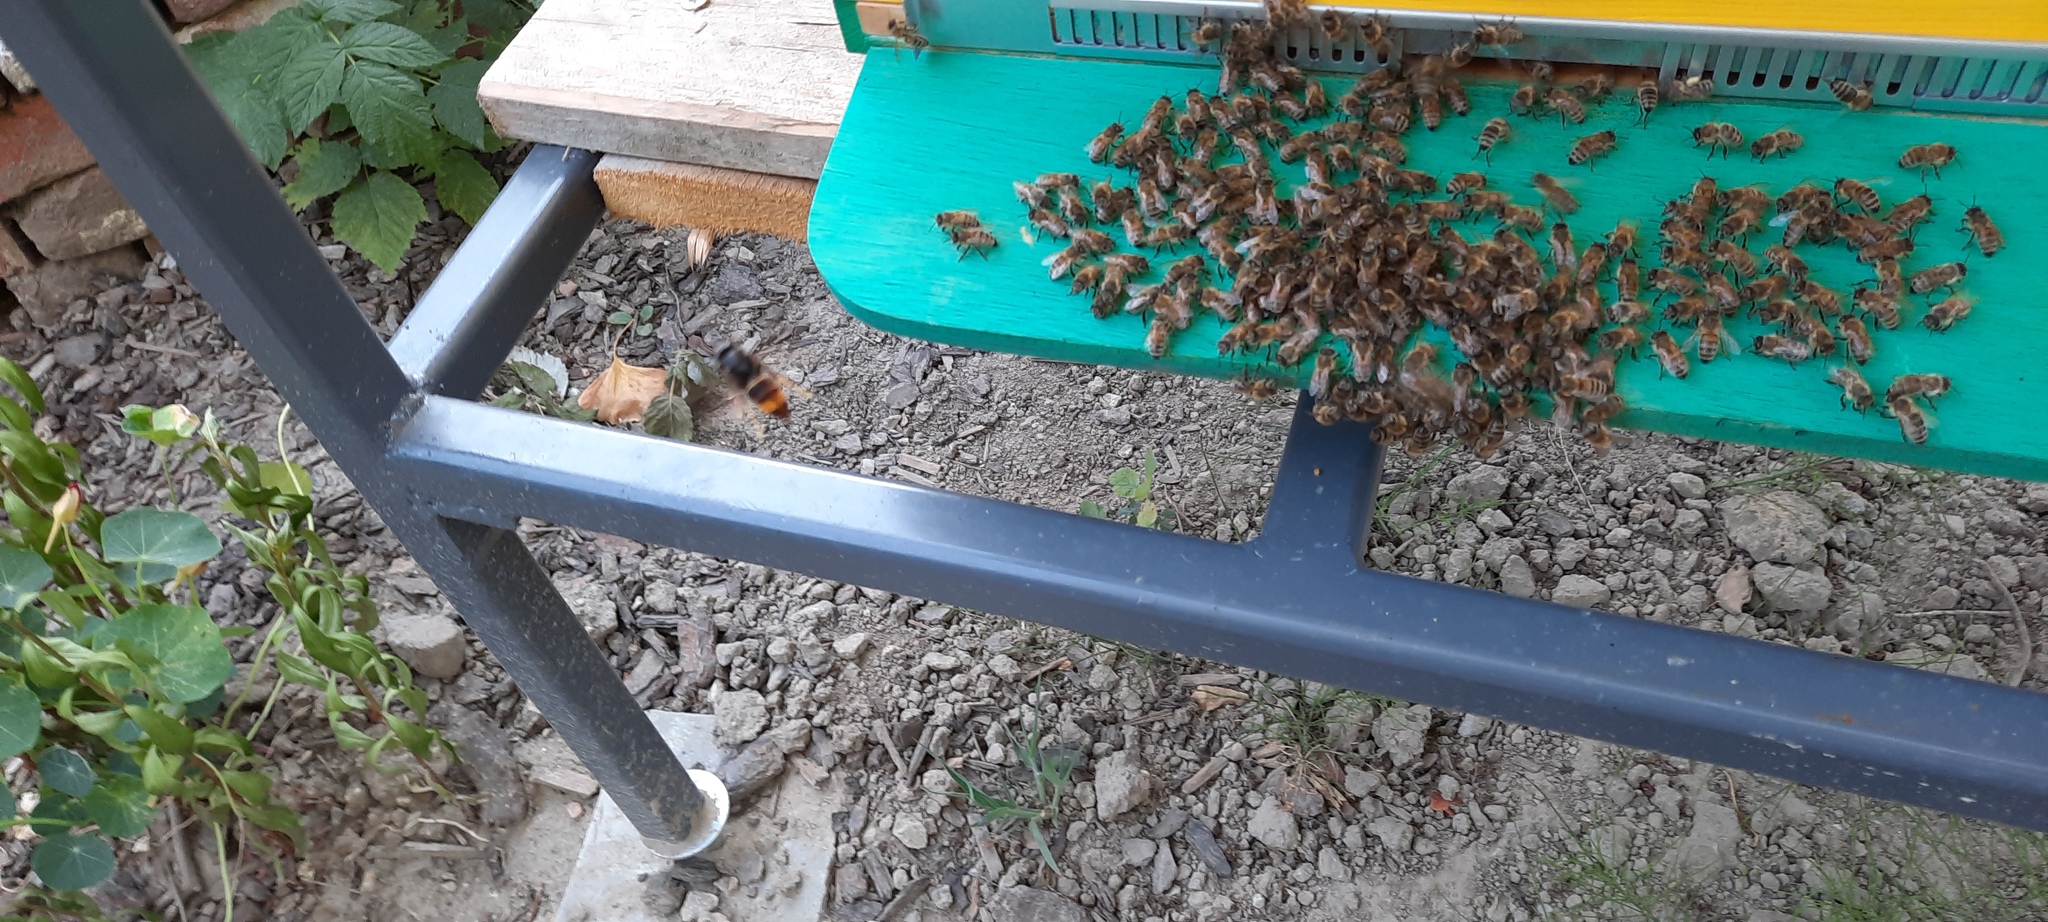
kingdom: Animalia
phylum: Arthropoda
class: Insecta
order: Hymenoptera
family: Vespidae
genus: Vespa
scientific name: Vespa velutina
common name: Asian hornet
